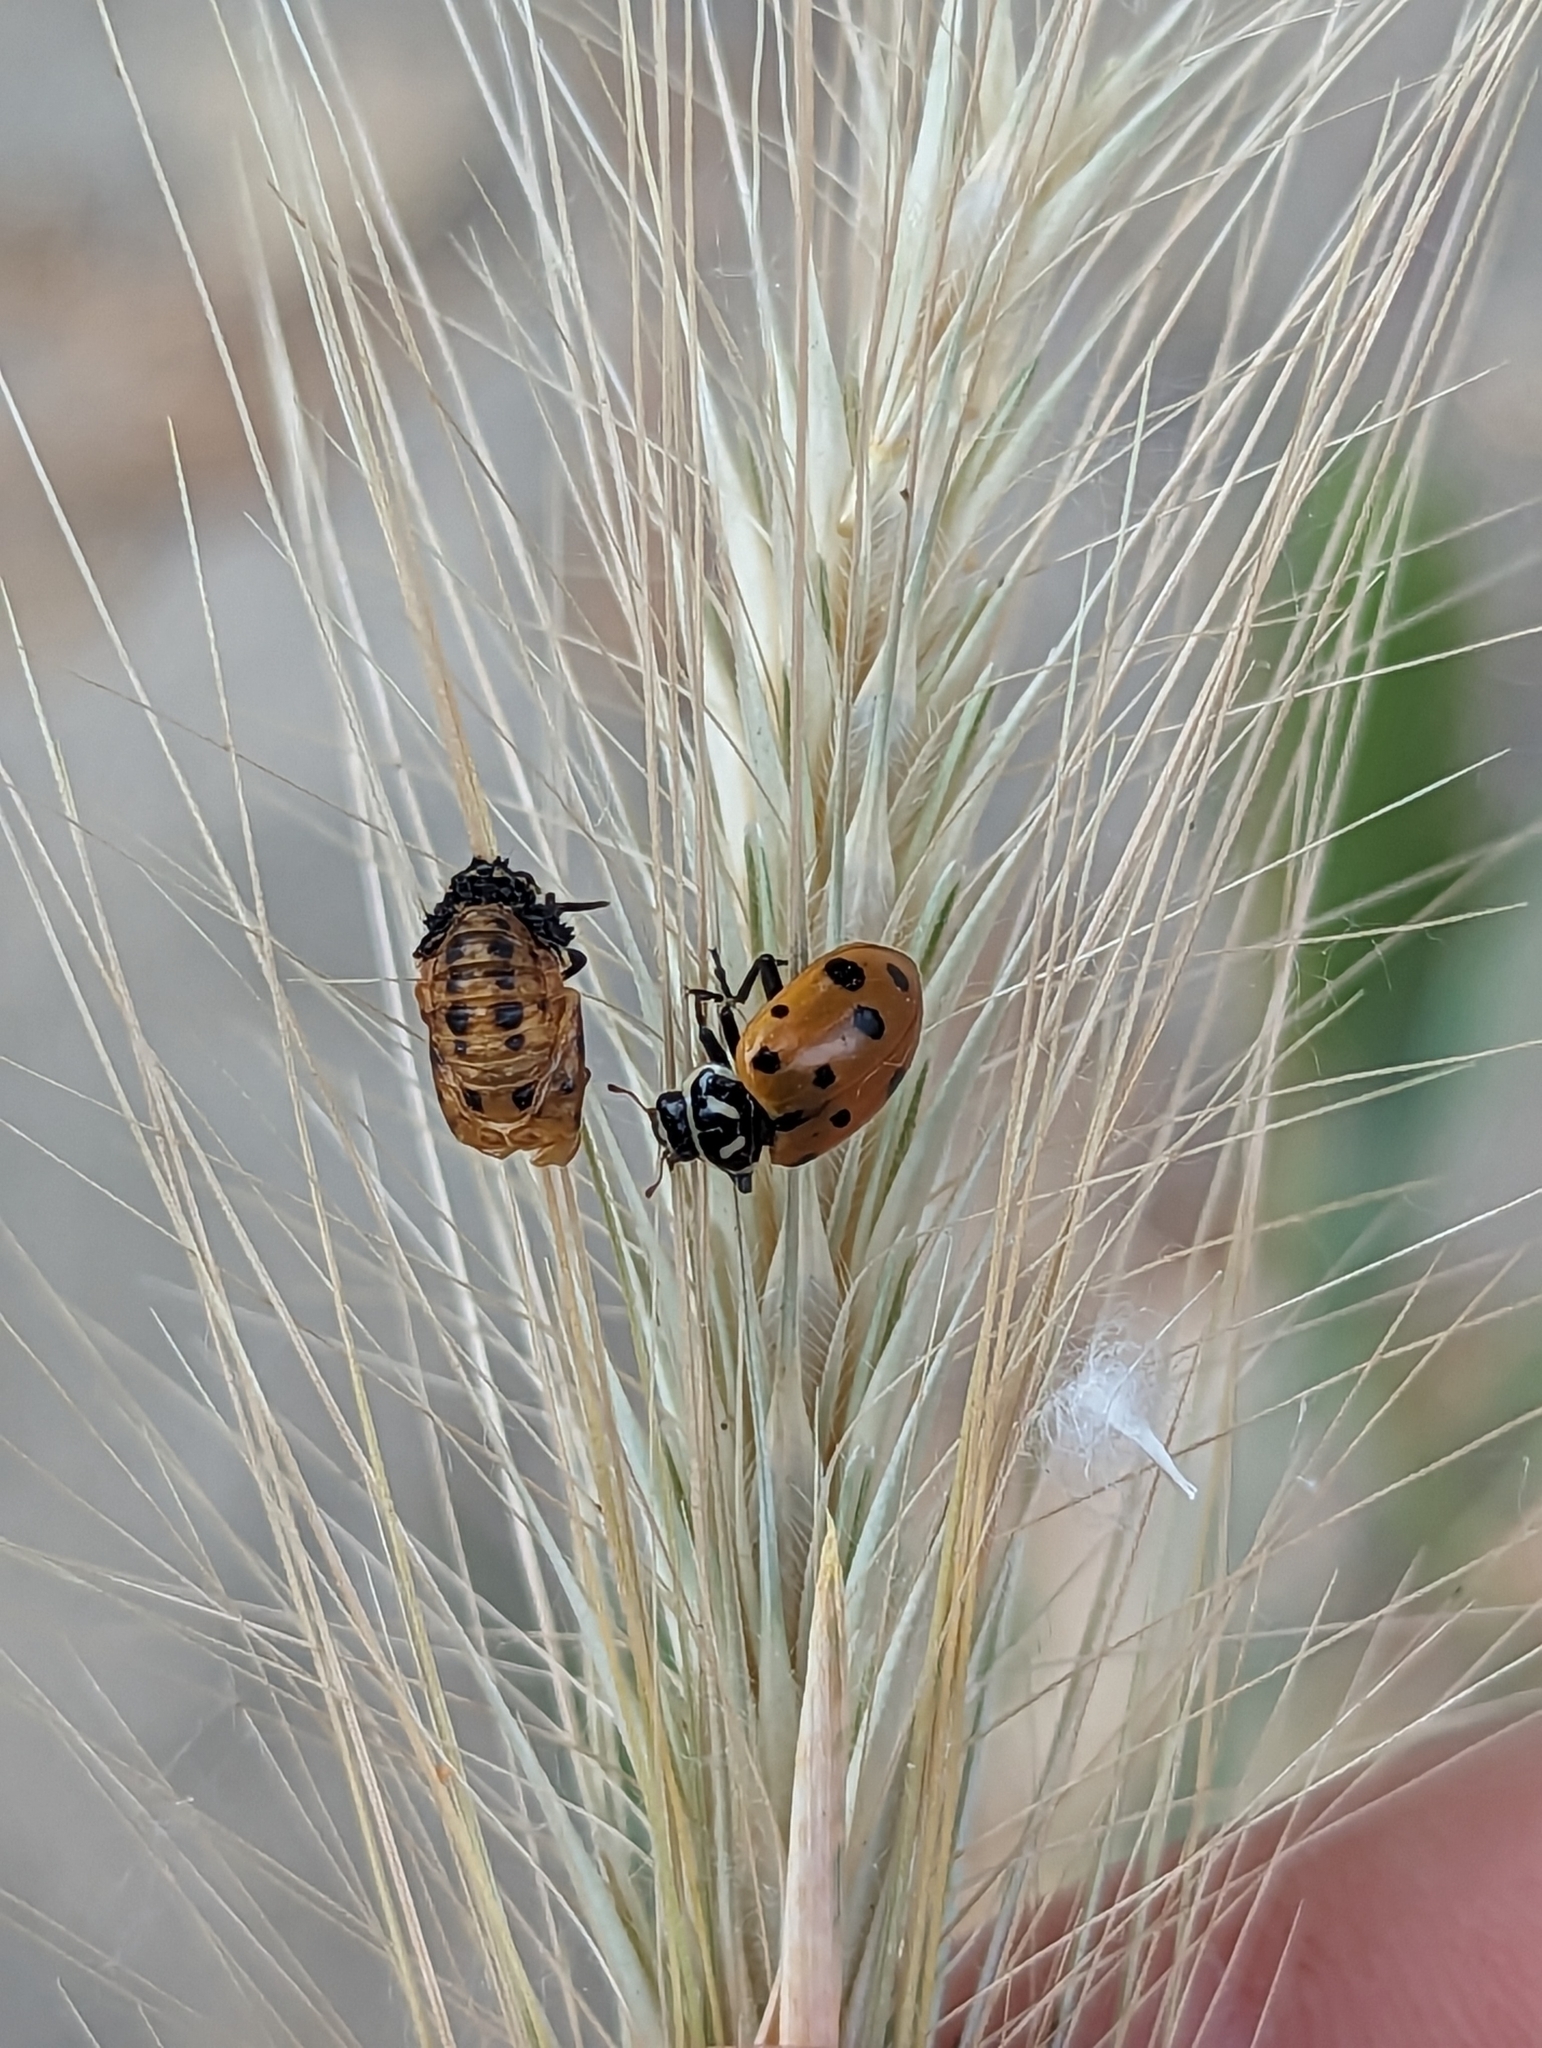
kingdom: Animalia
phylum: Arthropoda
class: Insecta
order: Coleoptera
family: Coccinellidae
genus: Hippodamia
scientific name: Hippodamia convergens
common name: Convergent lady beetle
